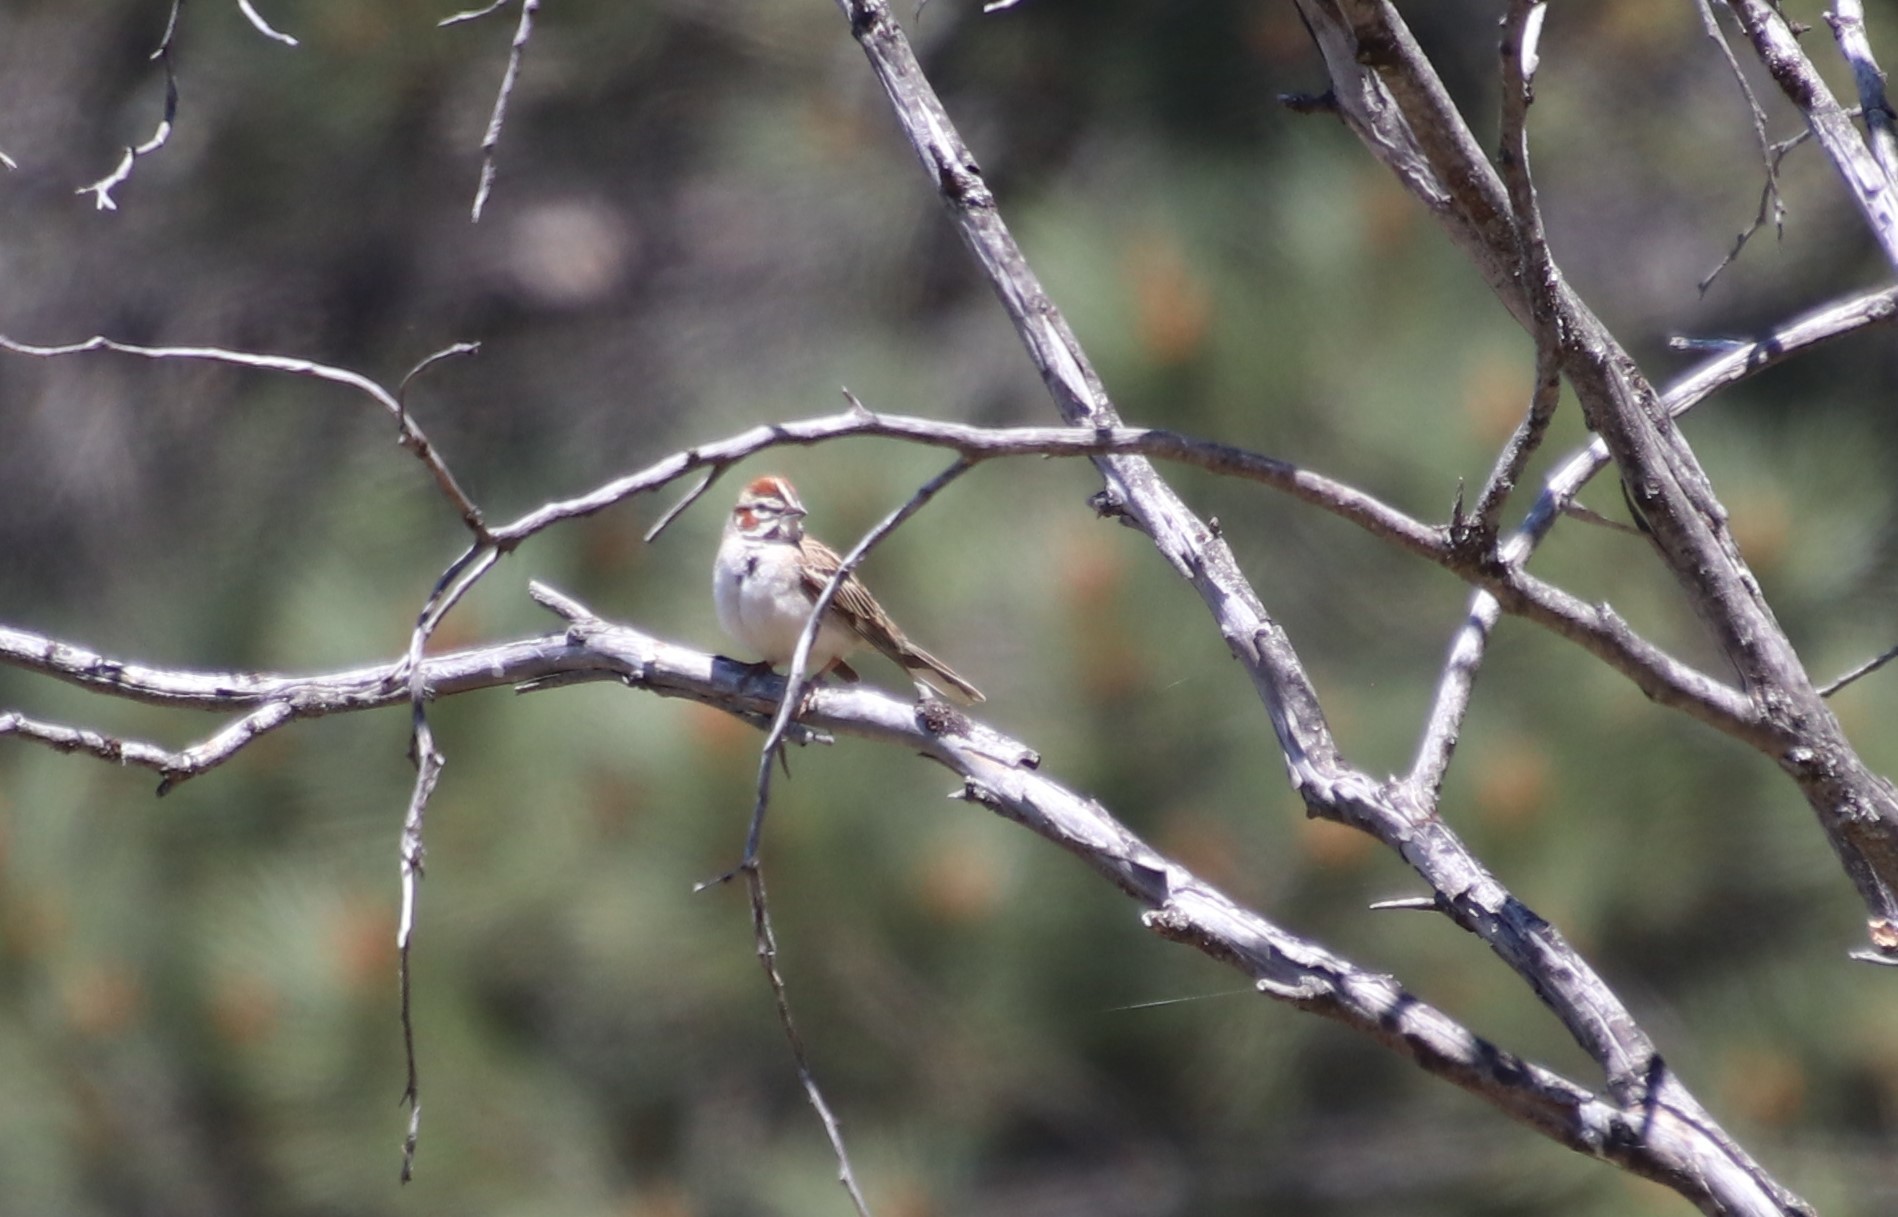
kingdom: Animalia
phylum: Chordata
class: Aves
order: Passeriformes
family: Passerellidae
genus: Chondestes
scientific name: Chondestes grammacus
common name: Lark sparrow
